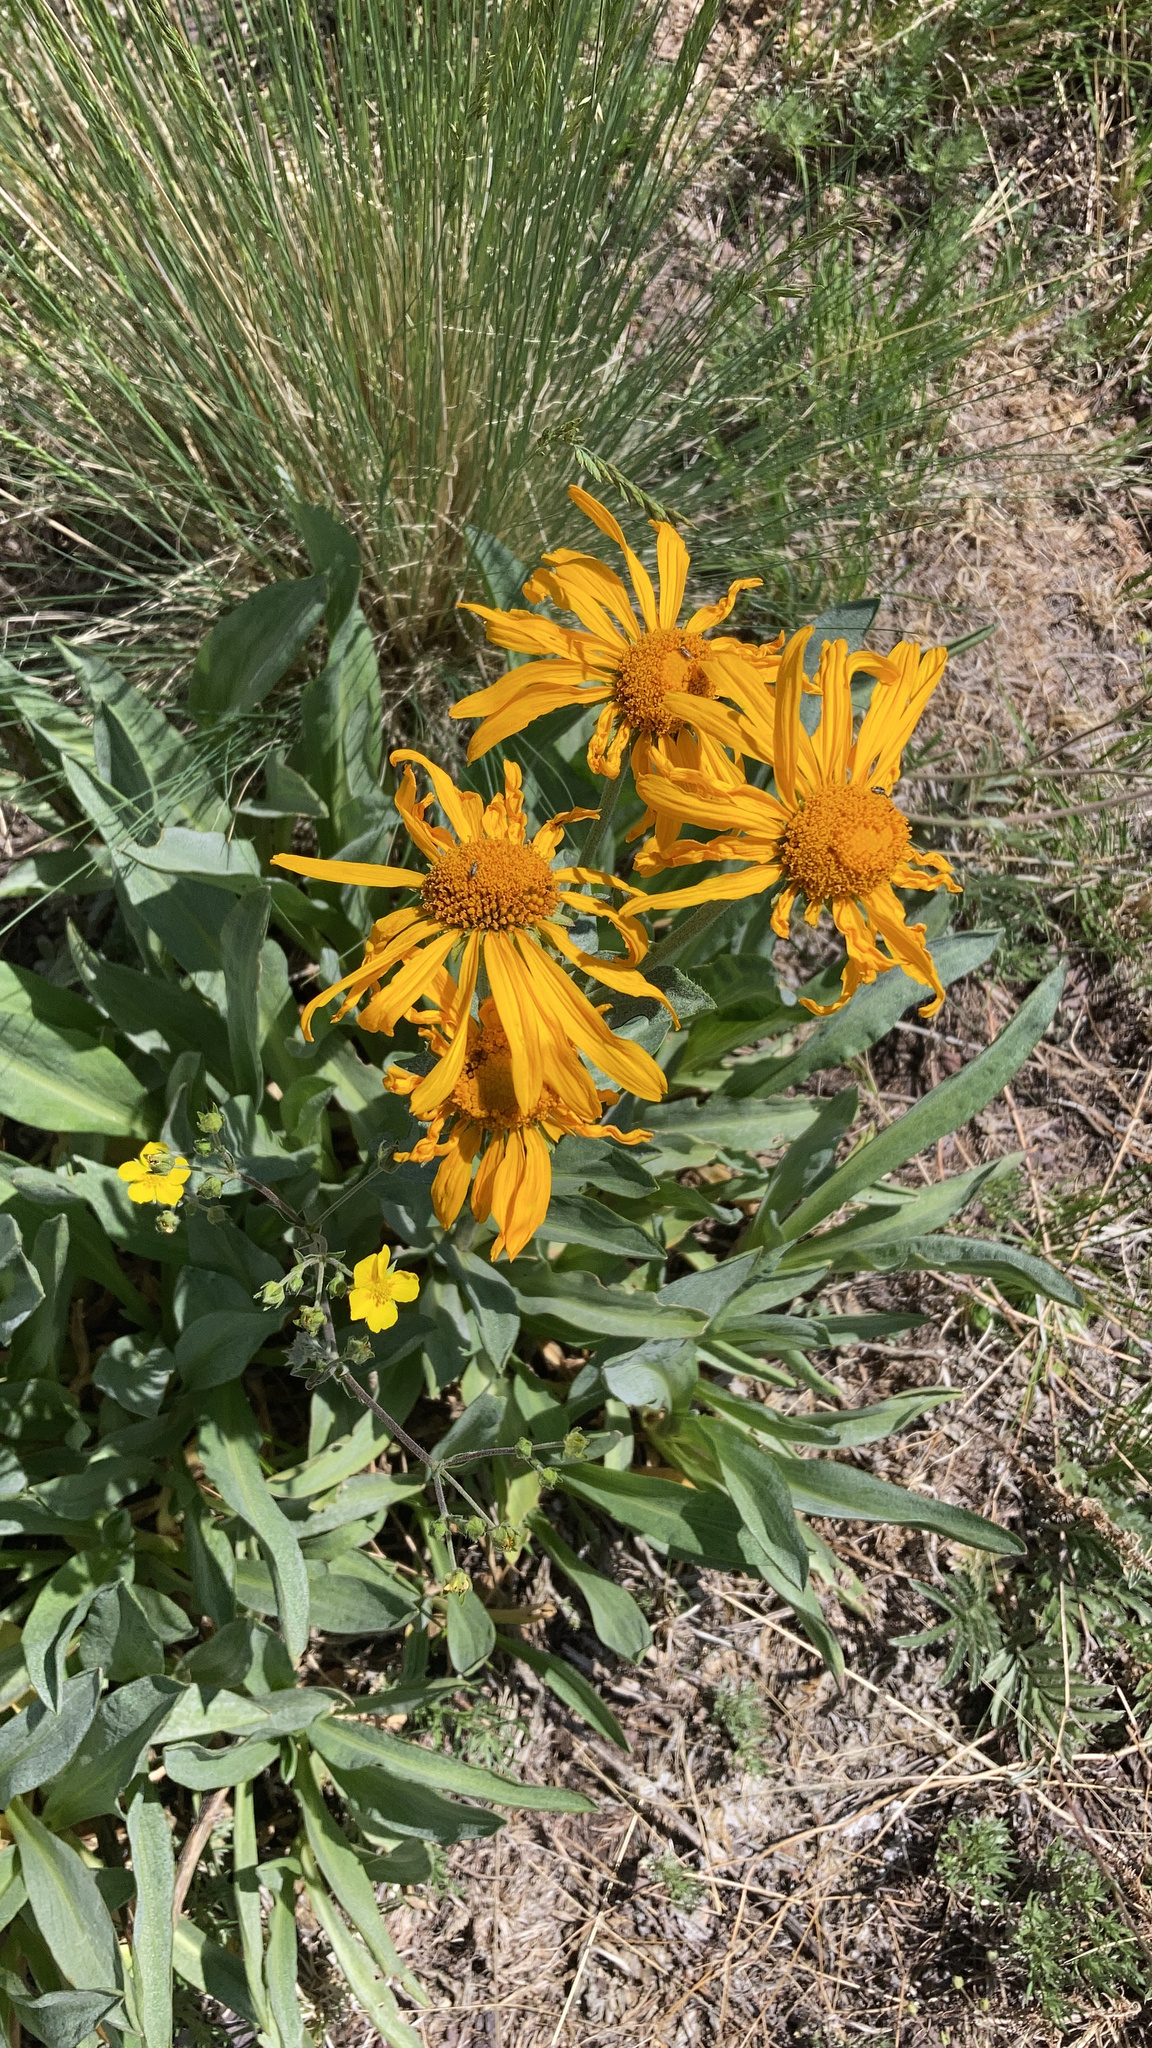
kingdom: Plantae
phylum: Tracheophyta
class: Magnoliopsida
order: Asterales
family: Asteraceae
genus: Hymenoxys
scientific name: Hymenoxys hoopesii
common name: Orange-sneezeweed
